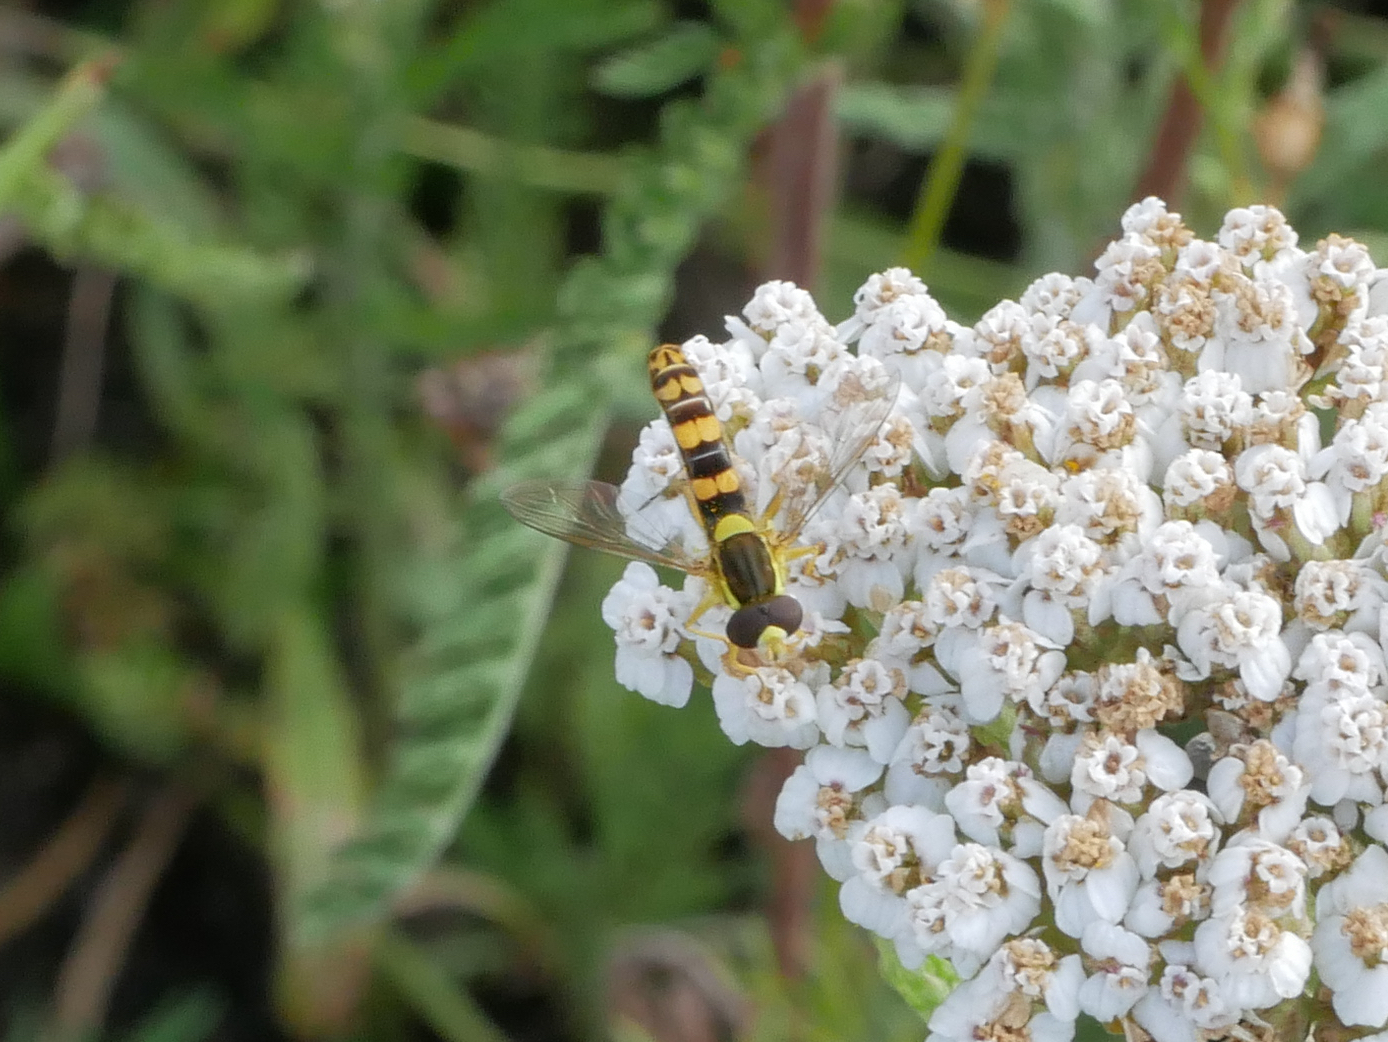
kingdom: Animalia
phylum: Arthropoda
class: Insecta
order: Diptera
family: Syrphidae
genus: Sphaerophoria
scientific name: Sphaerophoria scripta
